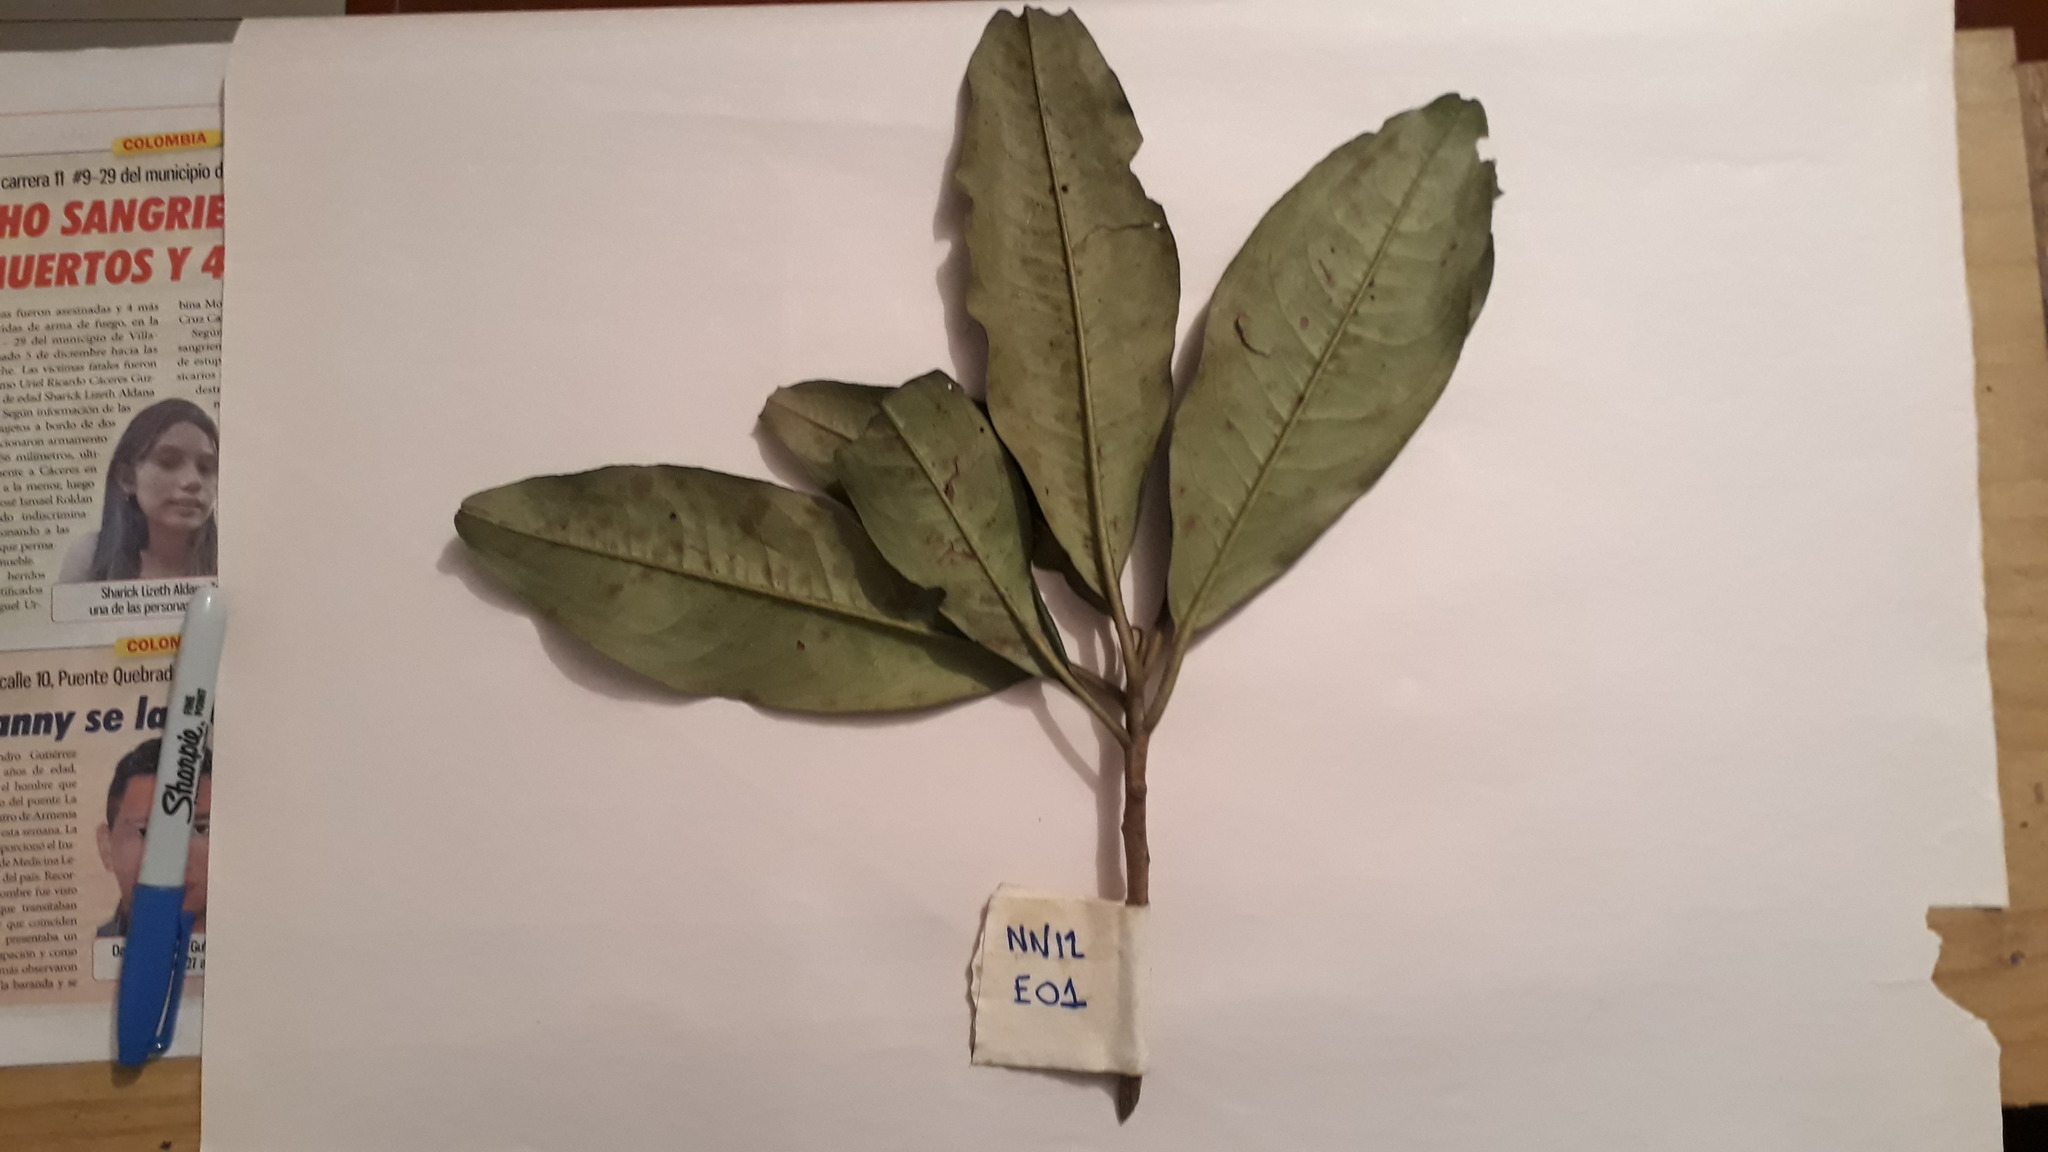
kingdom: Plantae
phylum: Tracheophyta
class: Magnoliopsida
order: Ericales
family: Primulaceae
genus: Geissanthus
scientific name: Geissanthus quindiensis
